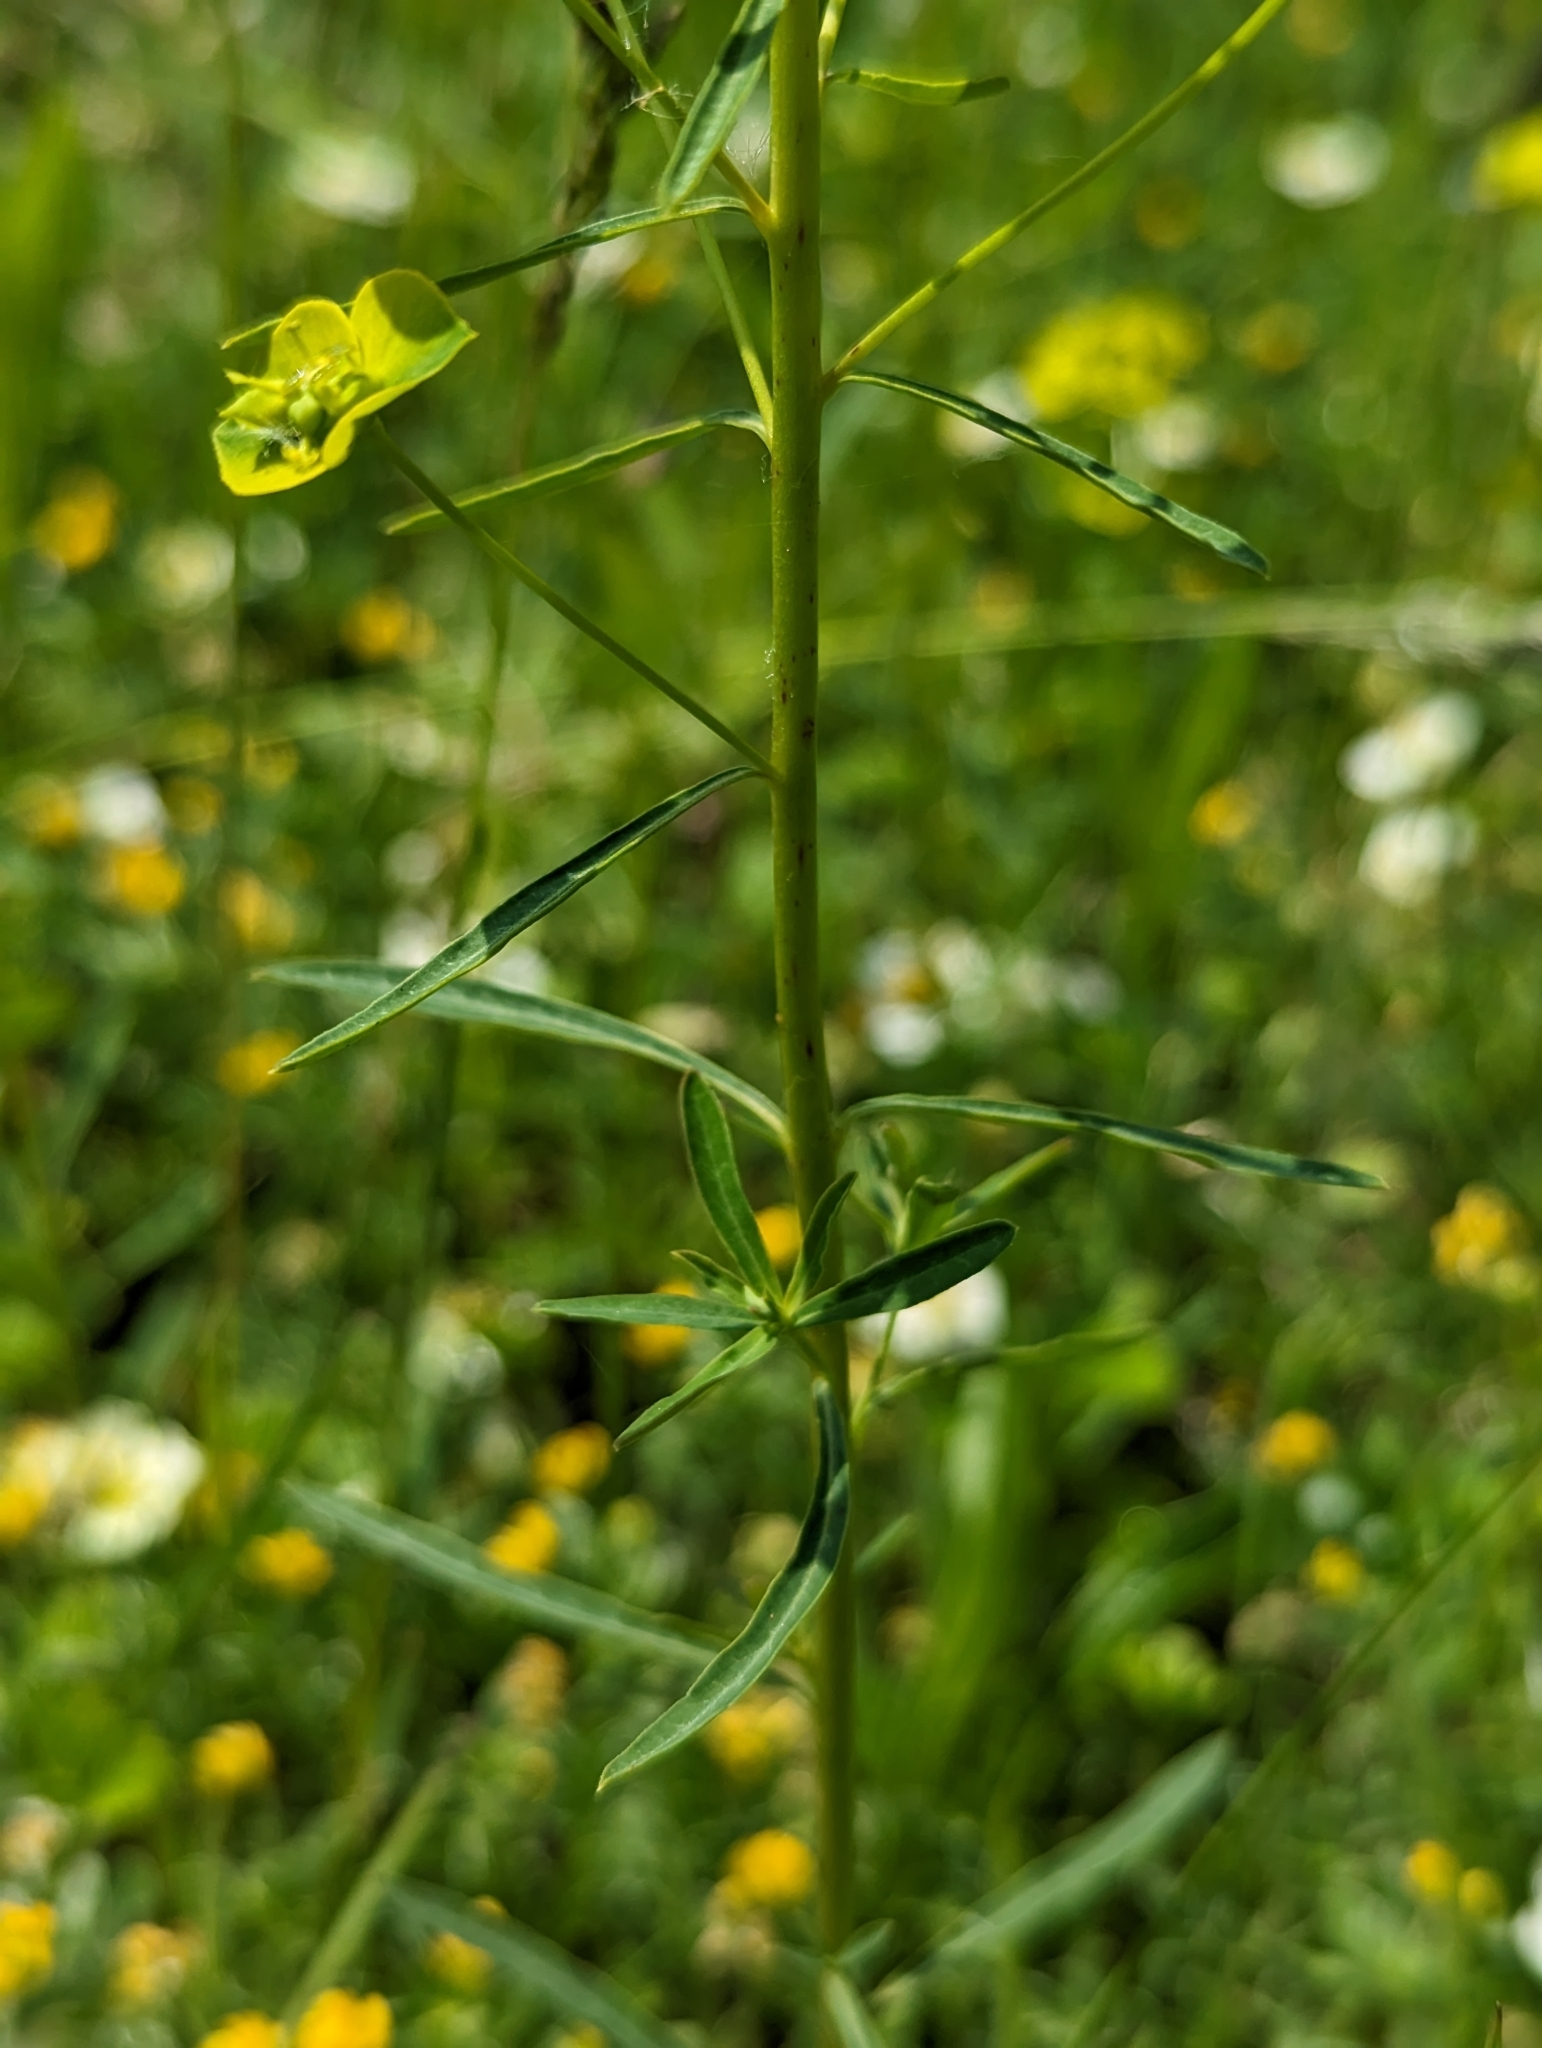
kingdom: Plantae
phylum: Tracheophyta
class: Magnoliopsida
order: Malpighiales
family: Euphorbiaceae
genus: Euphorbia
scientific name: Euphorbia esula
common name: Leafy spurge
